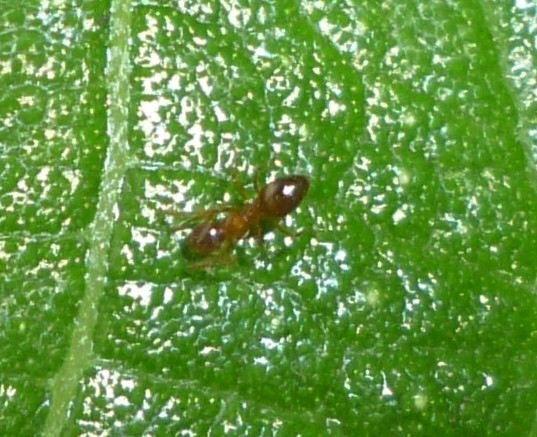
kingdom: Animalia
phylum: Arthropoda
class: Insecta
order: Hymenoptera
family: Formicidae
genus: Paratrechina
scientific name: Paratrechina flavipes
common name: Eastern asian formicine ant
